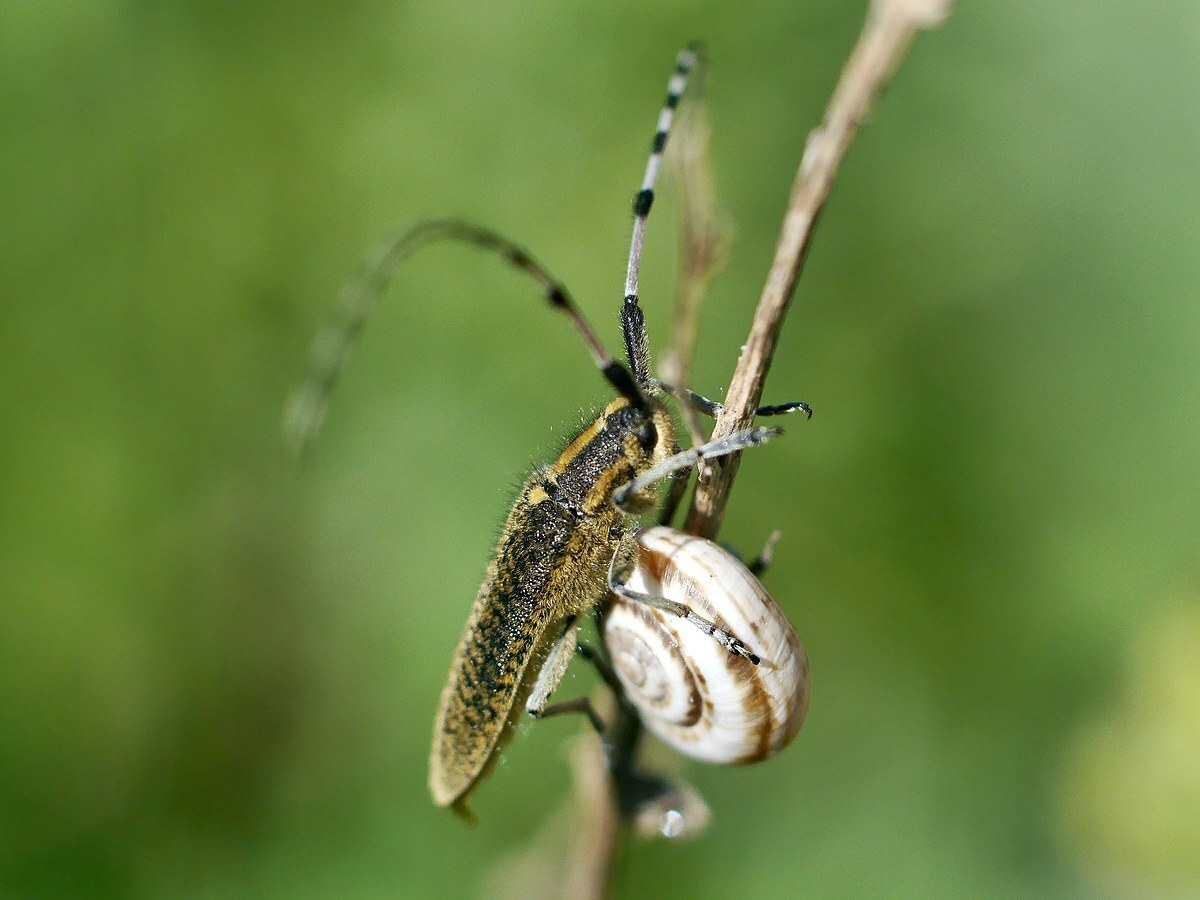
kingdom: Animalia
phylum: Arthropoda
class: Insecta
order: Coleoptera
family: Cerambycidae
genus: Agapanthia
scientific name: Agapanthia villosoviridescens
